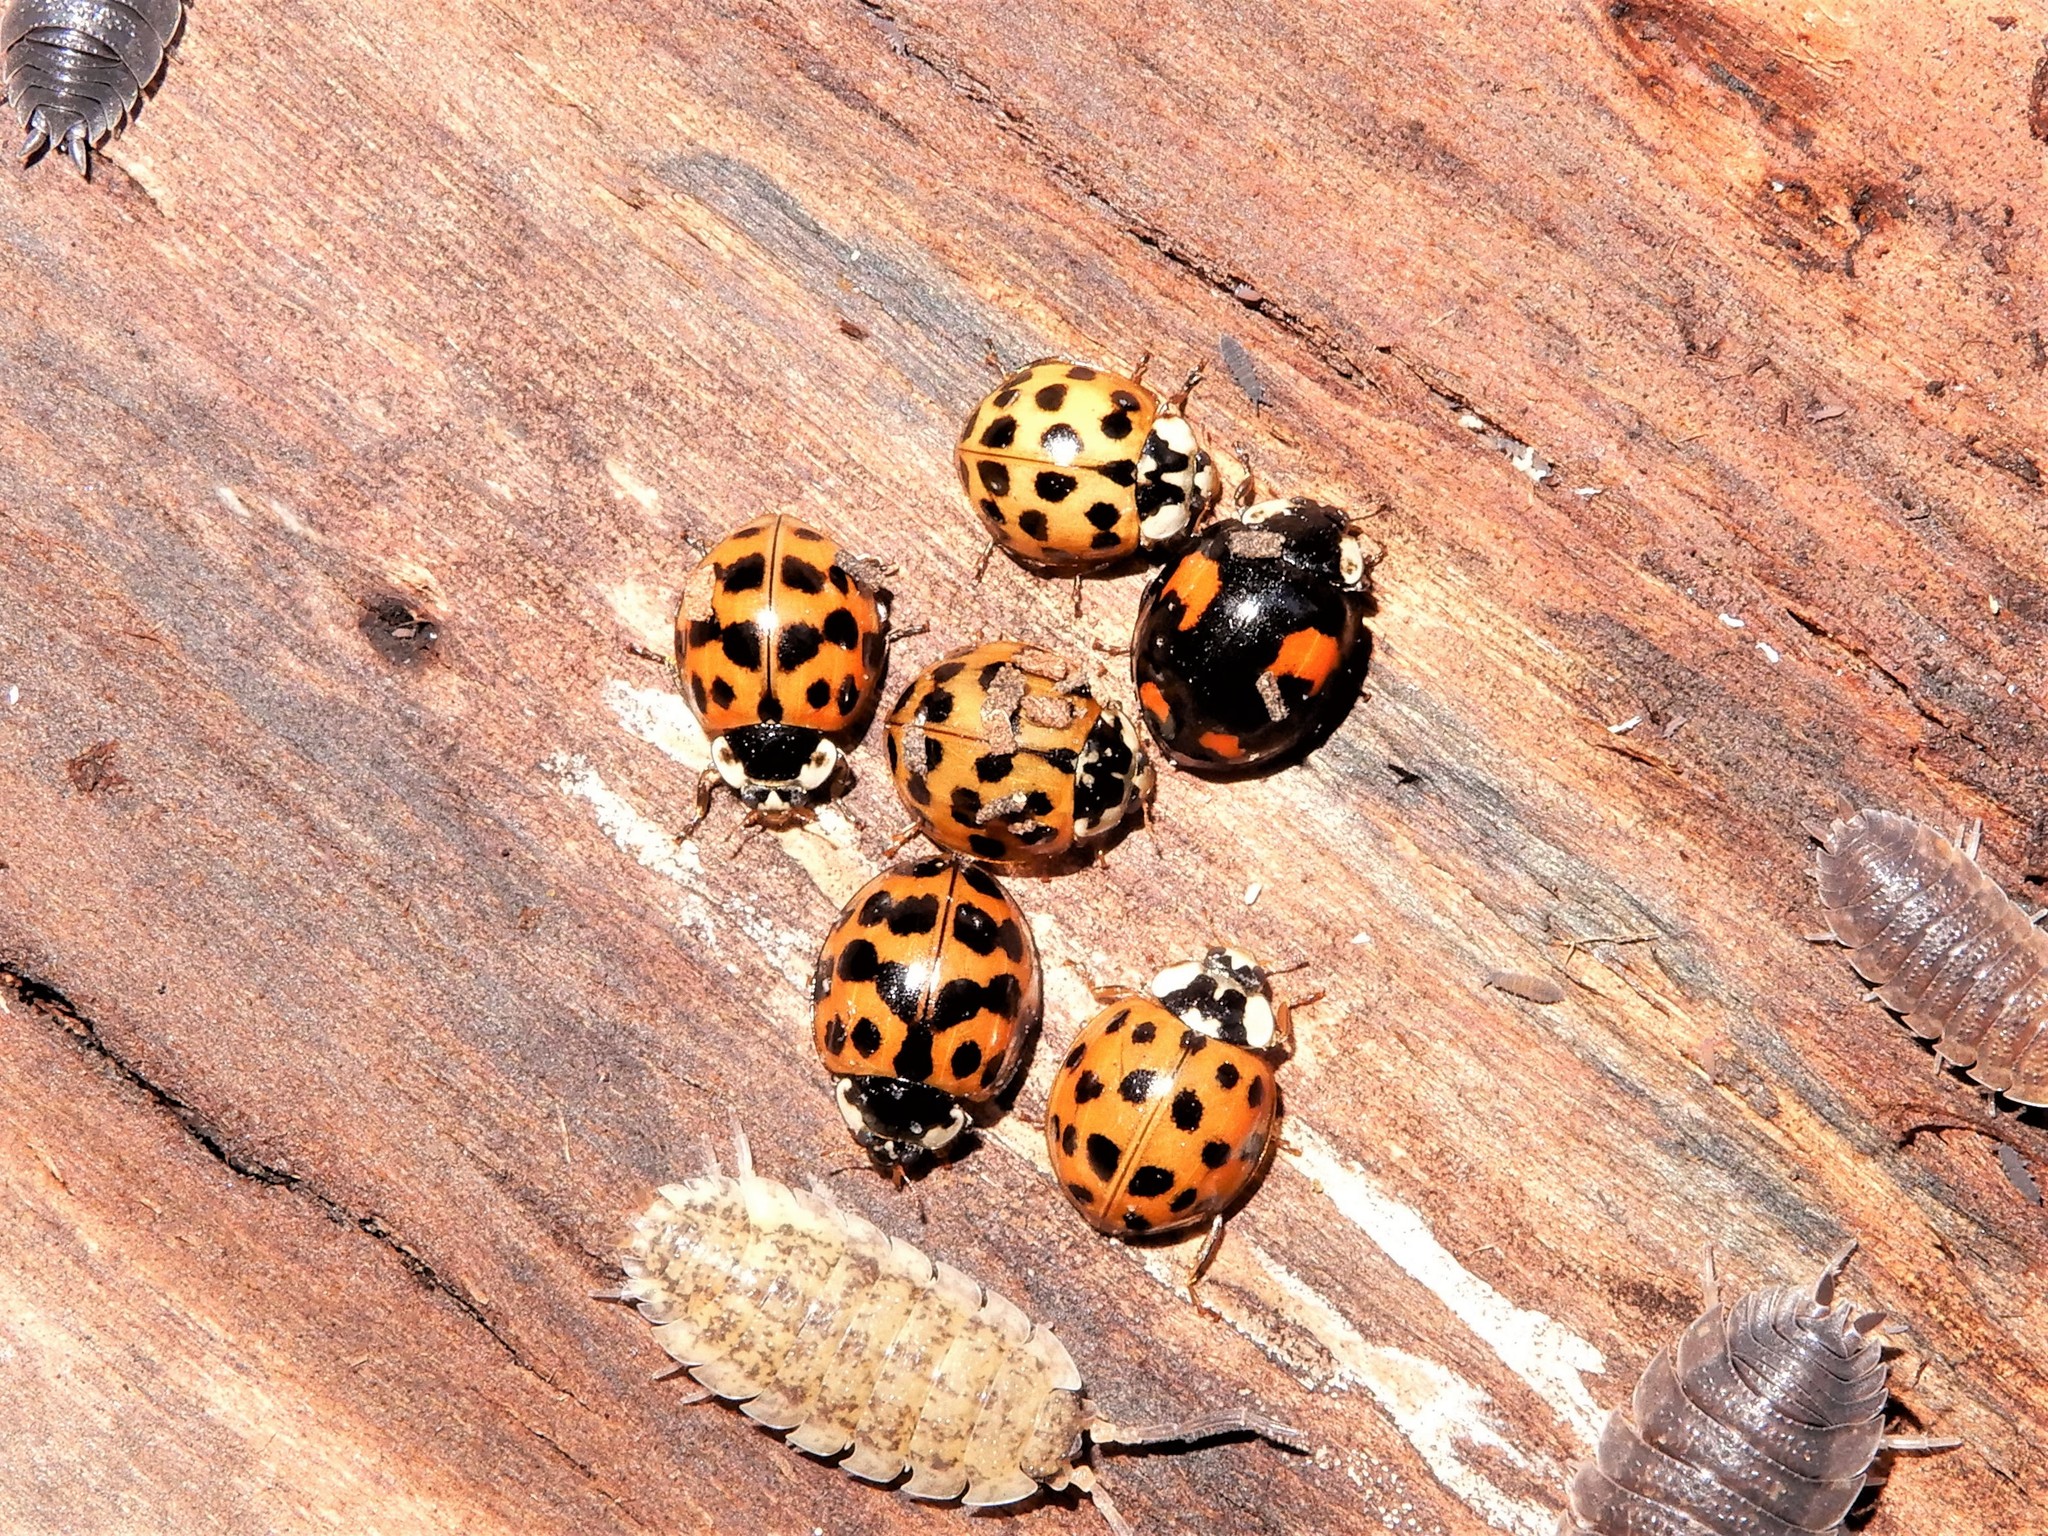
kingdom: Animalia
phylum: Arthropoda
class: Insecta
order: Coleoptera
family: Coccinellidae
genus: Harmonia
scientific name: Harmonia axyridis
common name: Harlequin ladybird
